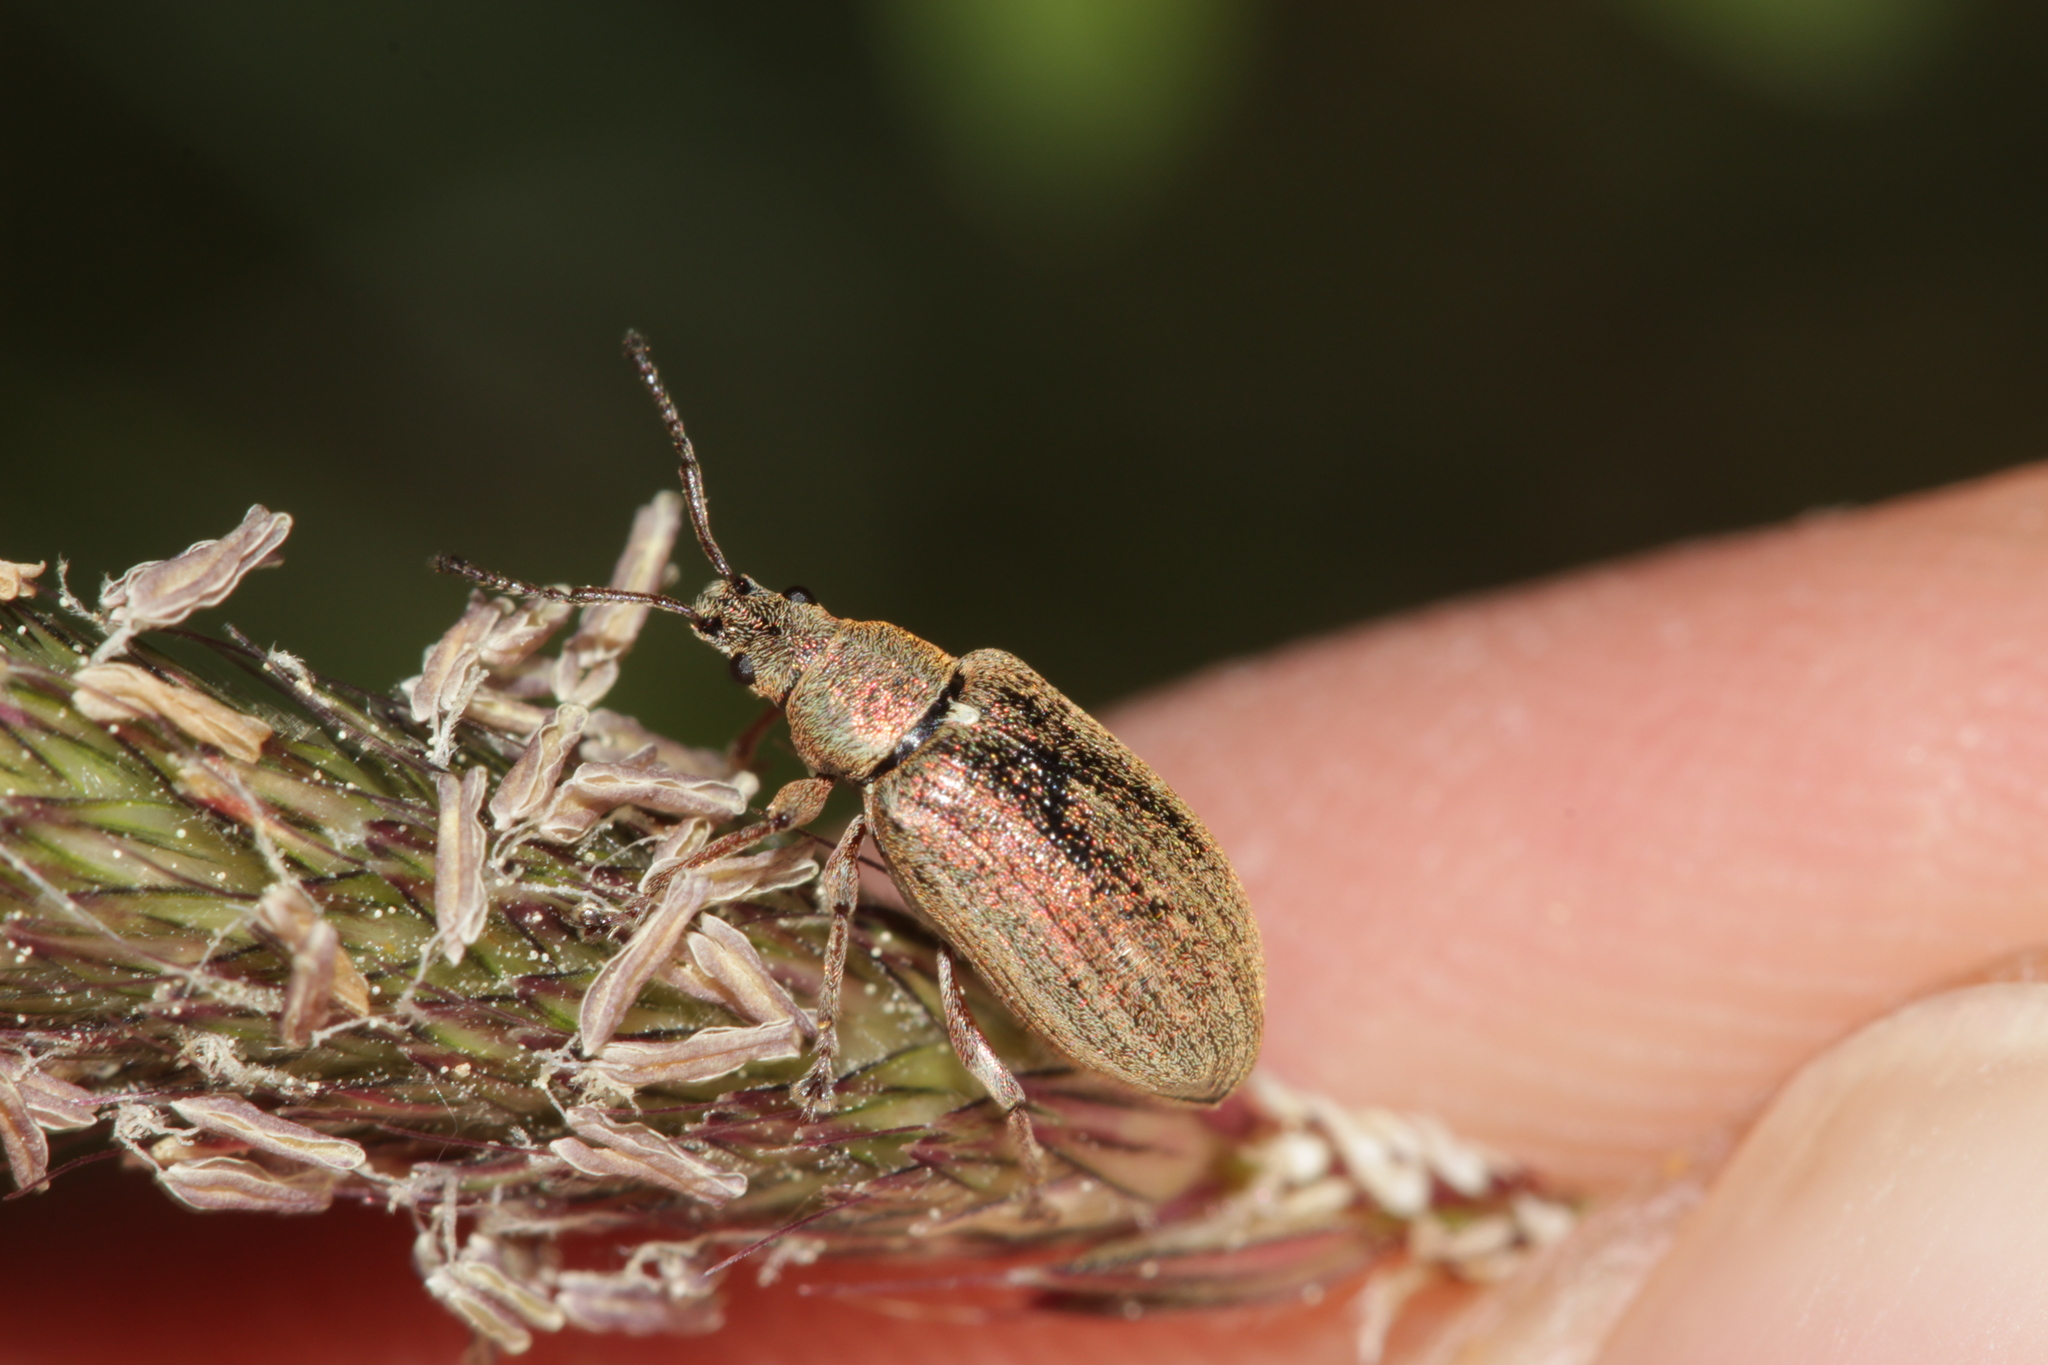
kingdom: Animalia
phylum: Arthropoda
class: Insecta
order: Coleoptera
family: Curculionidae
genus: Phyllobius
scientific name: Phyllobius pyri
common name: Common leaf weevil
